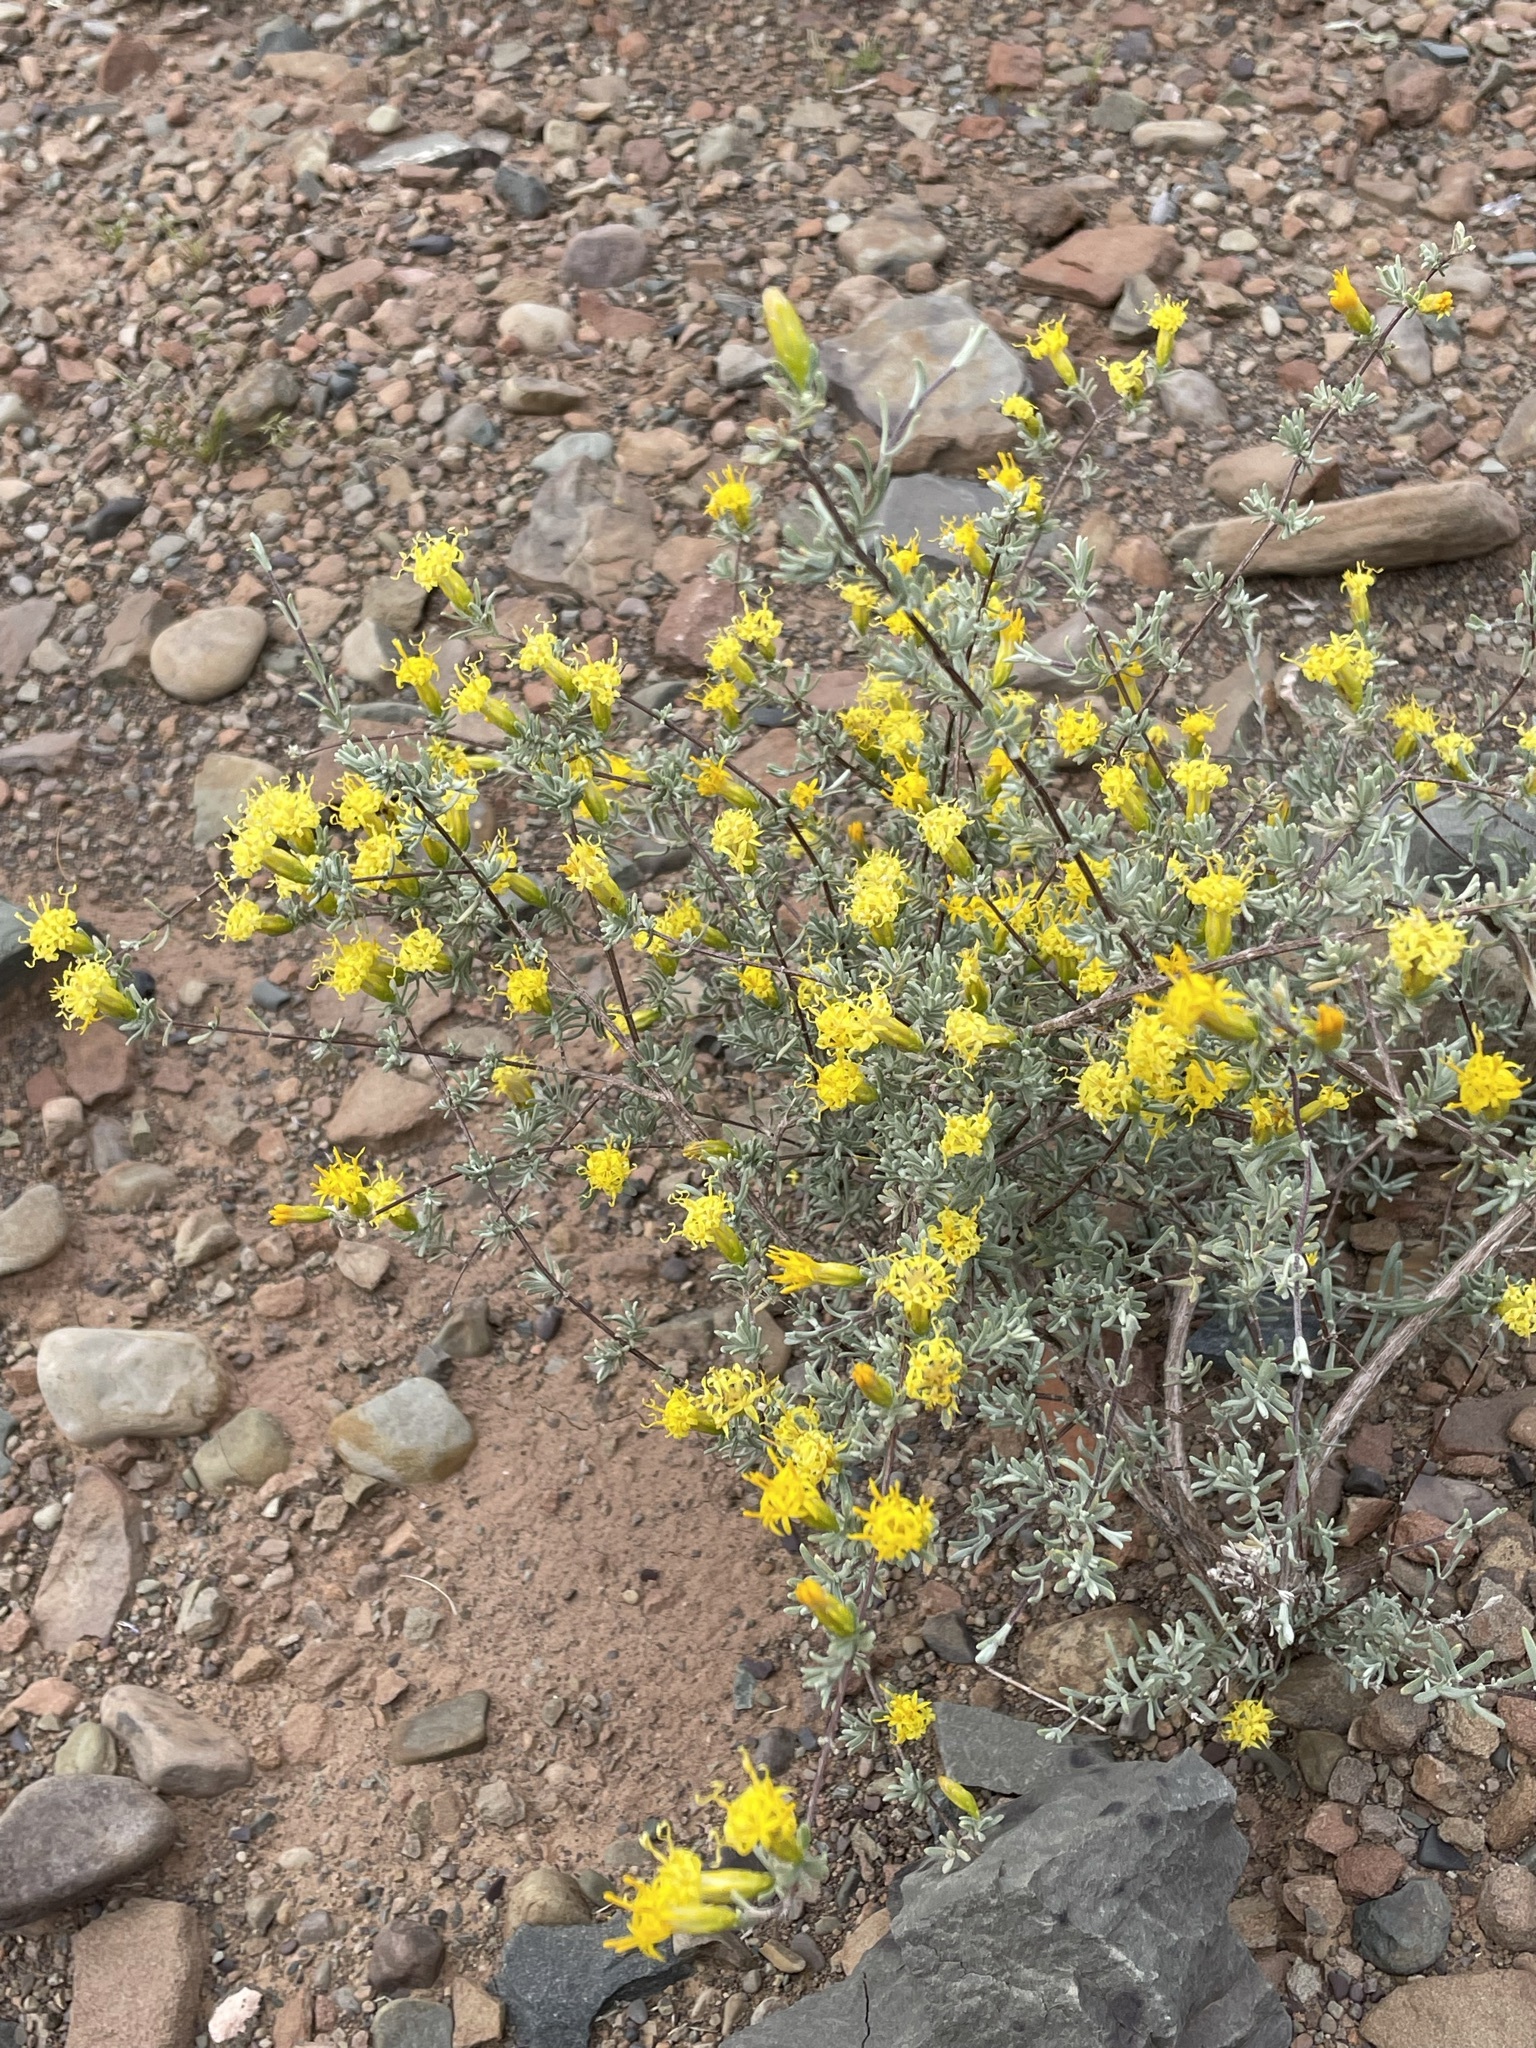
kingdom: Plantae
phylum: Tracheophyta
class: Magnoliopsida
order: Asterales
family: Asteraceae
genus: Pteronia
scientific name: Pteronia incana
